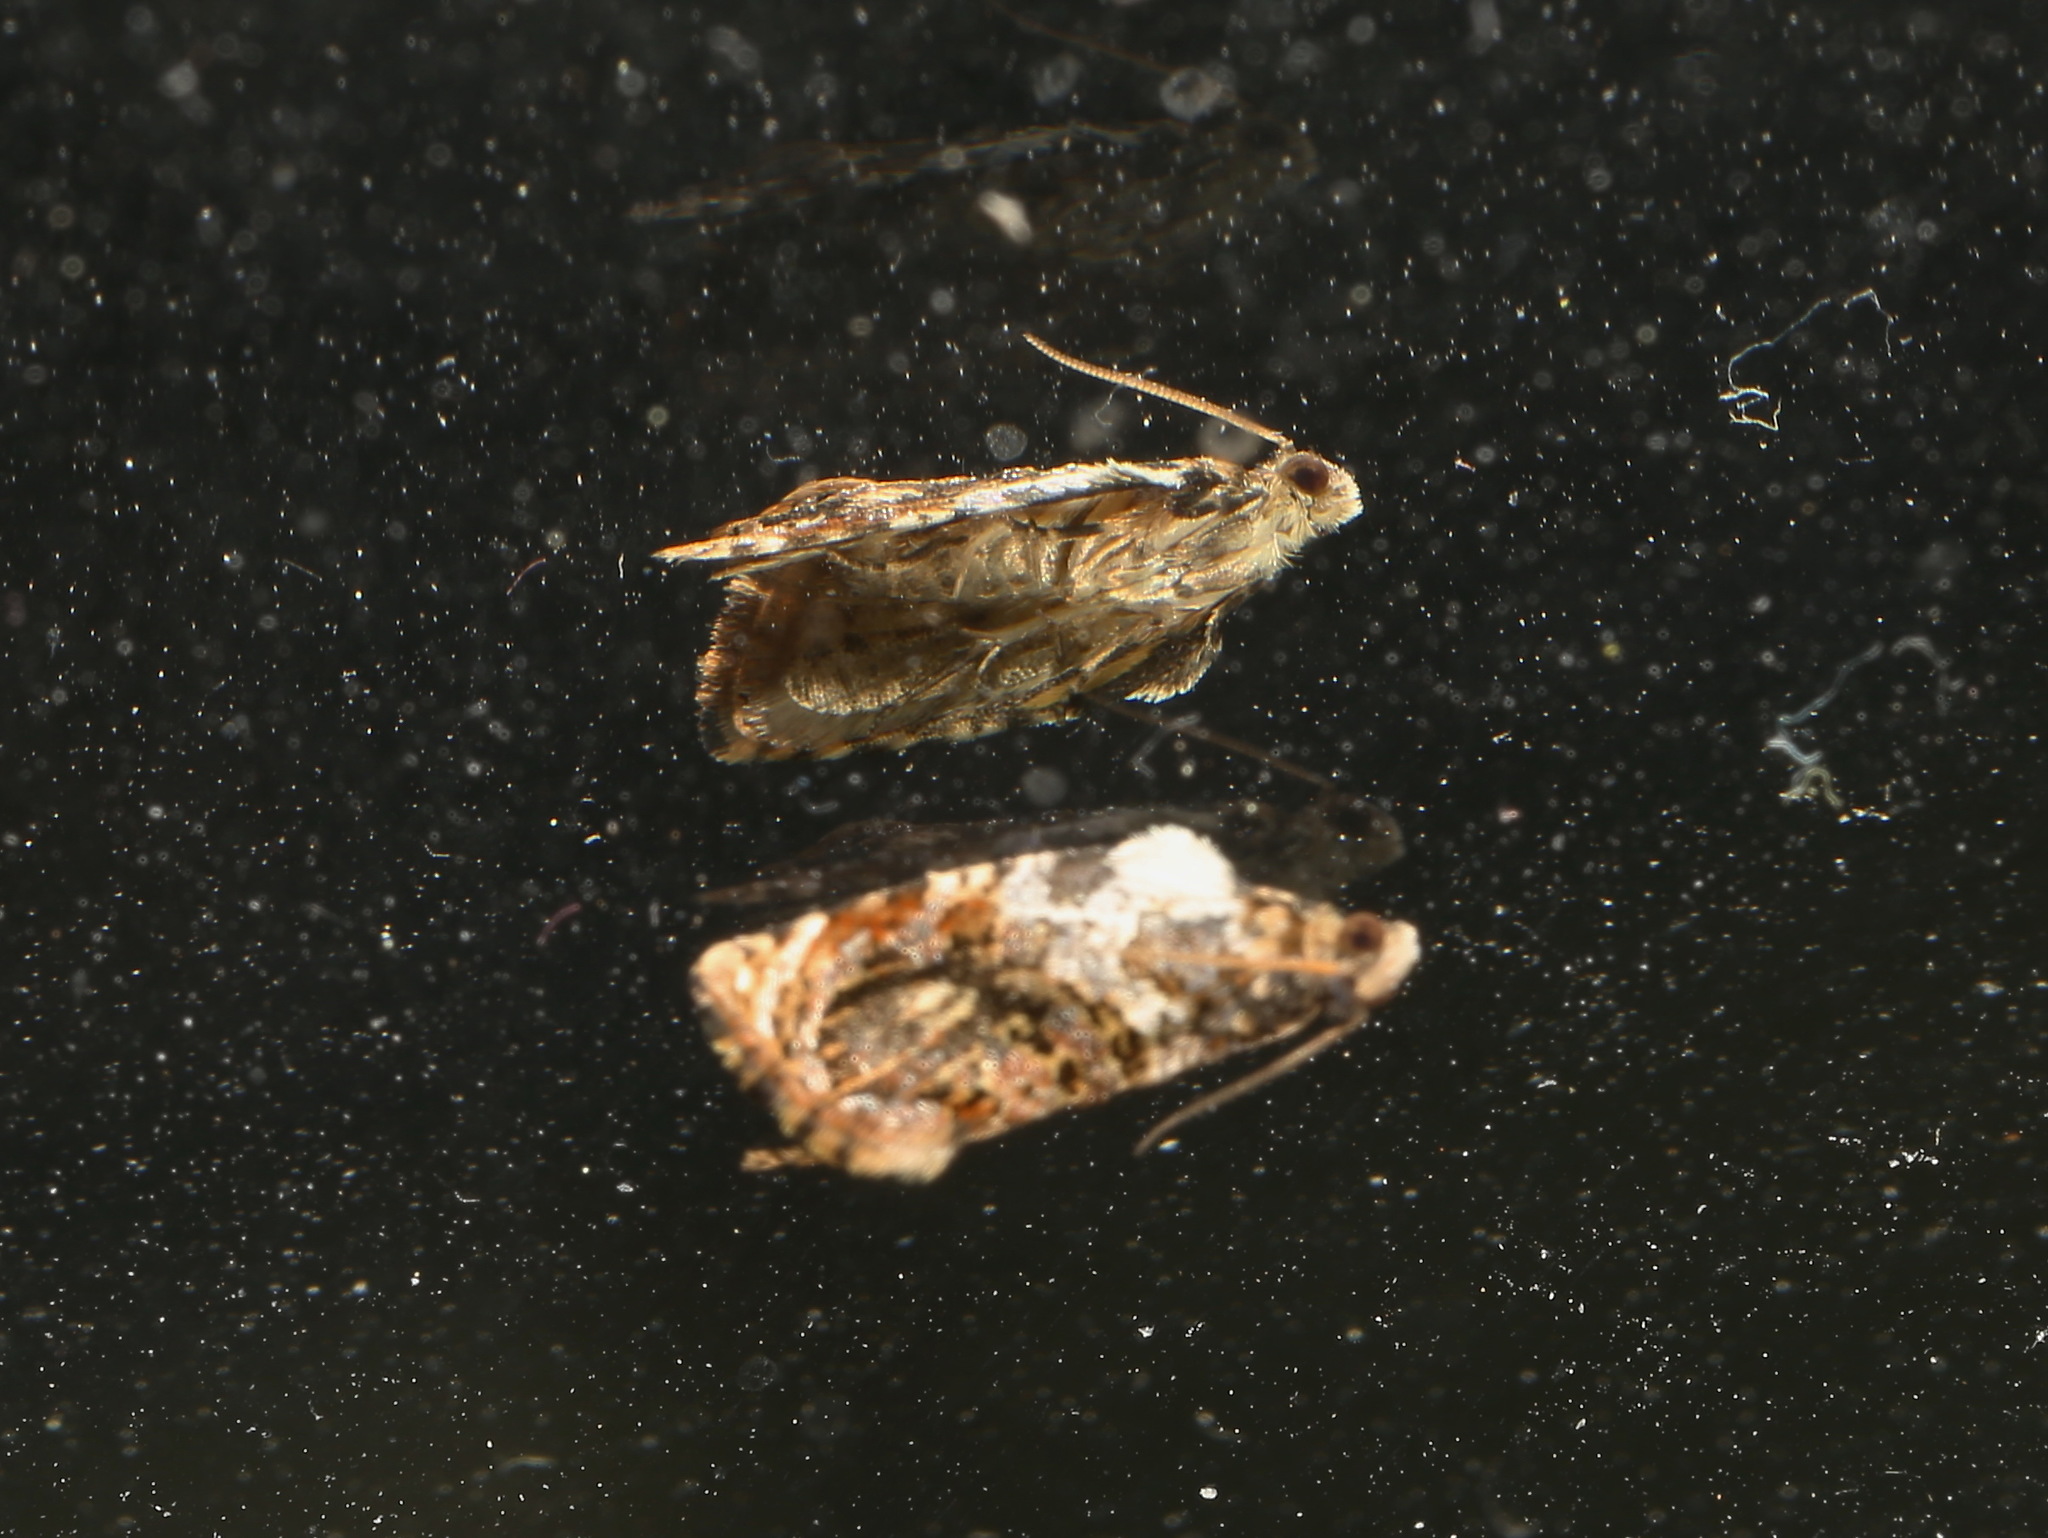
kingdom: Animalia
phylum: Arthropoda
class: Insecta
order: Lepidoptera
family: Tortricidae
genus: Acroceuthes
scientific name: Acroceuthes metaxanthana
